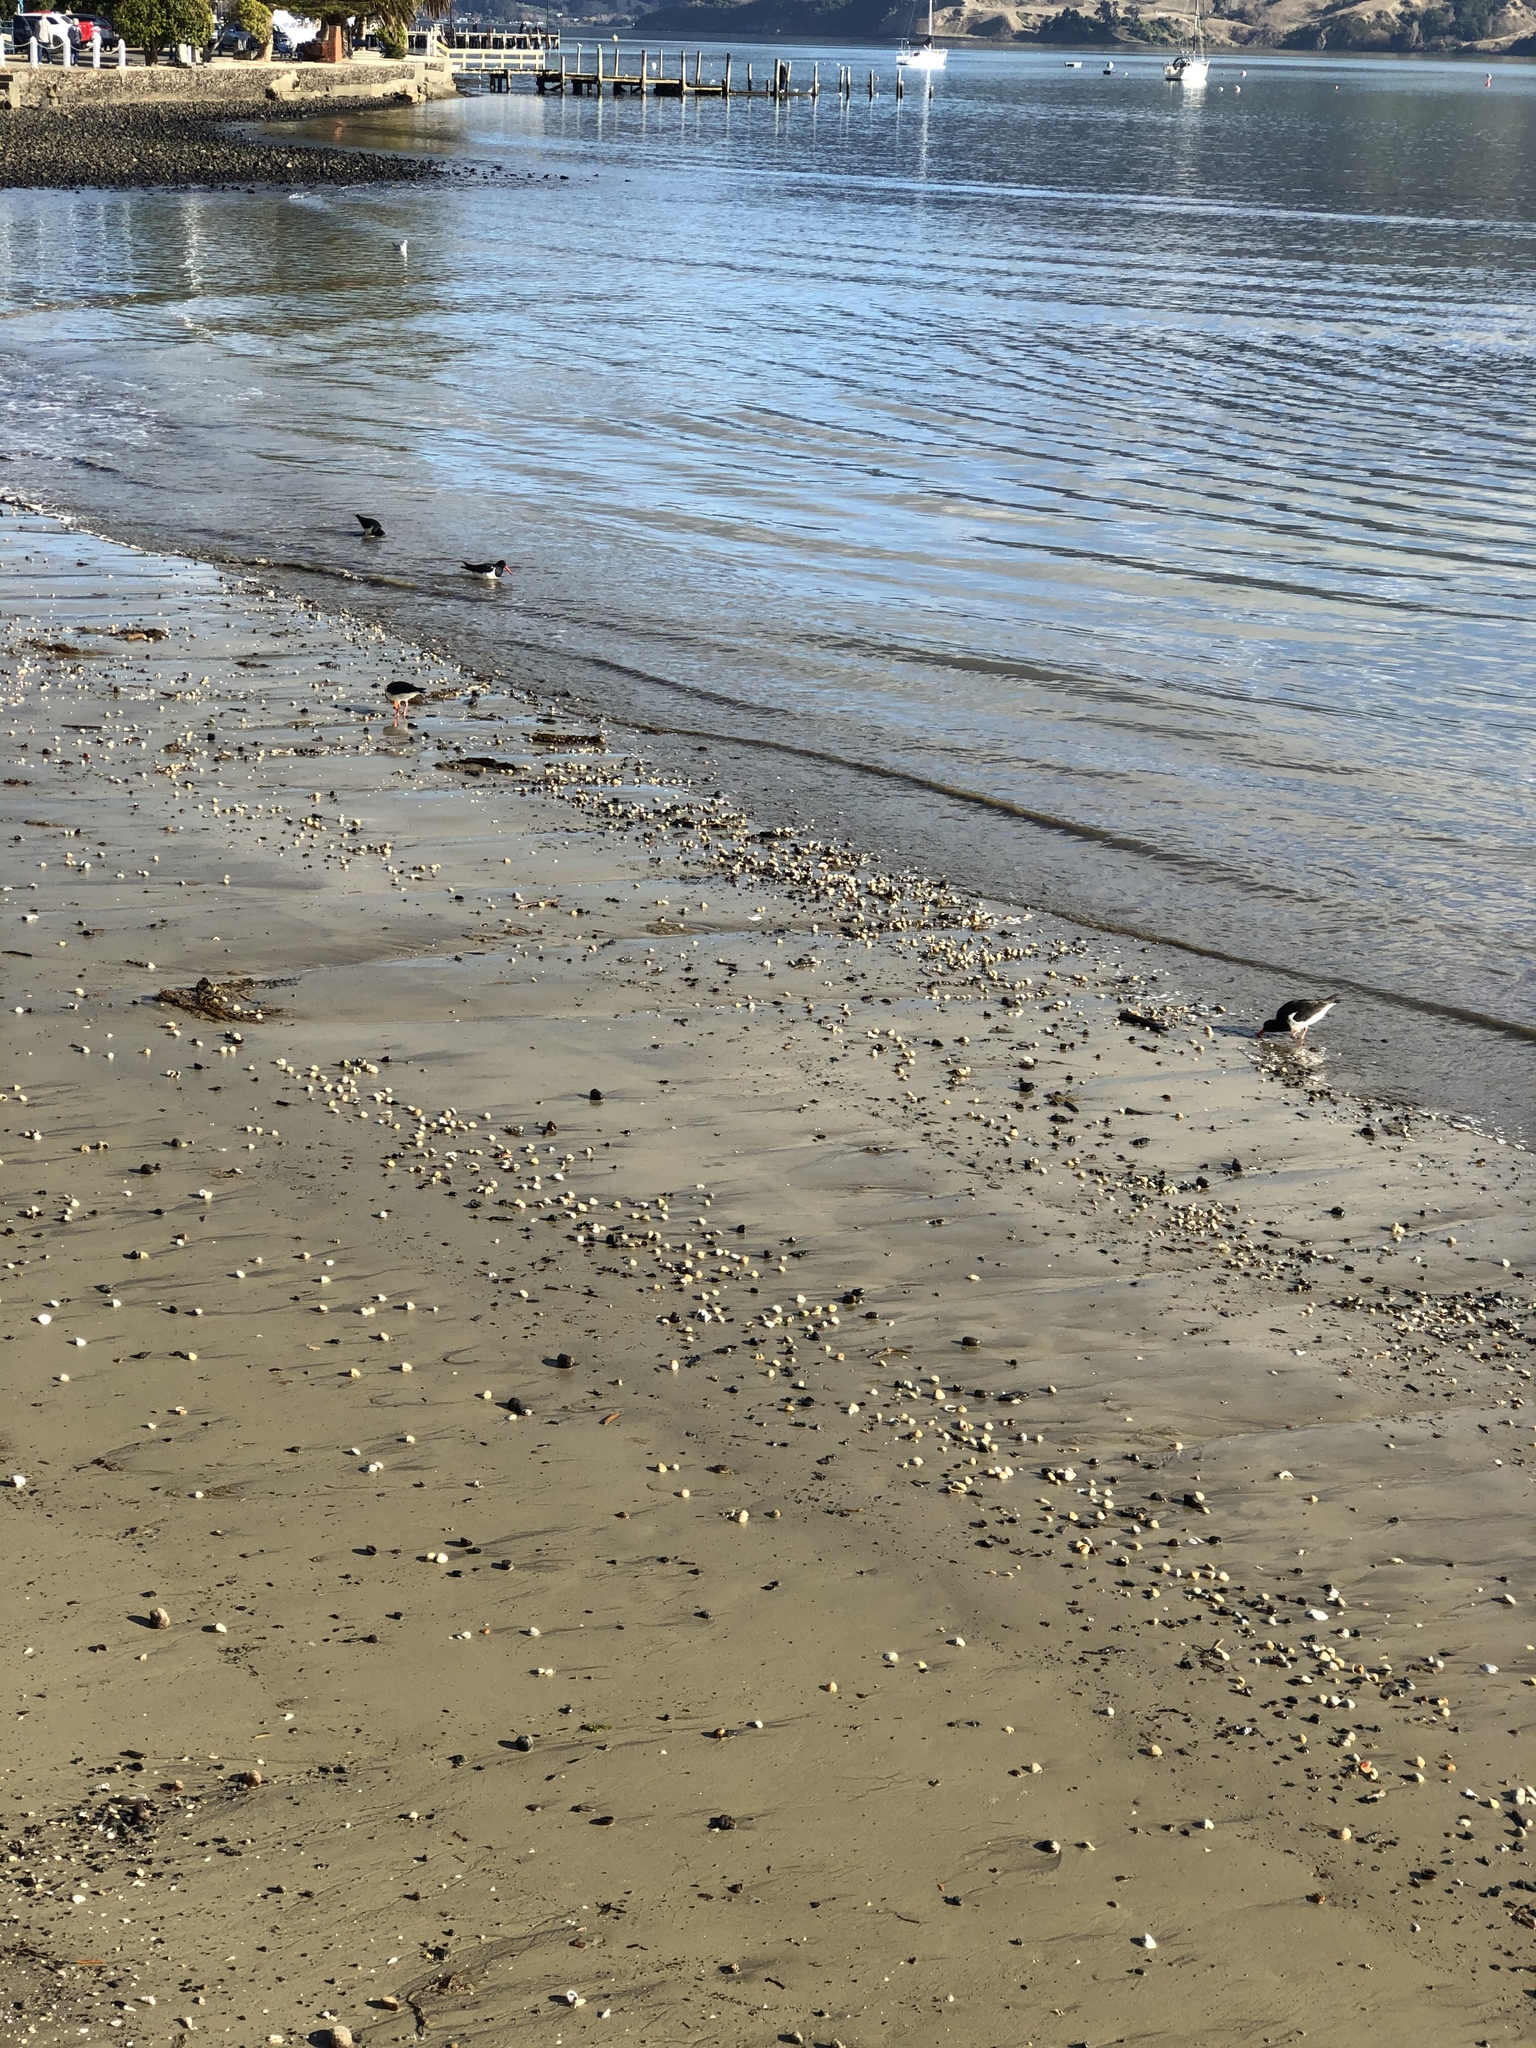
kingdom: Animalia
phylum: Chordata
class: Aves
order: Charadriiformes
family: Haematopodidae
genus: Haematopus
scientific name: Haematopus finschi
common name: South island oystercatcher
